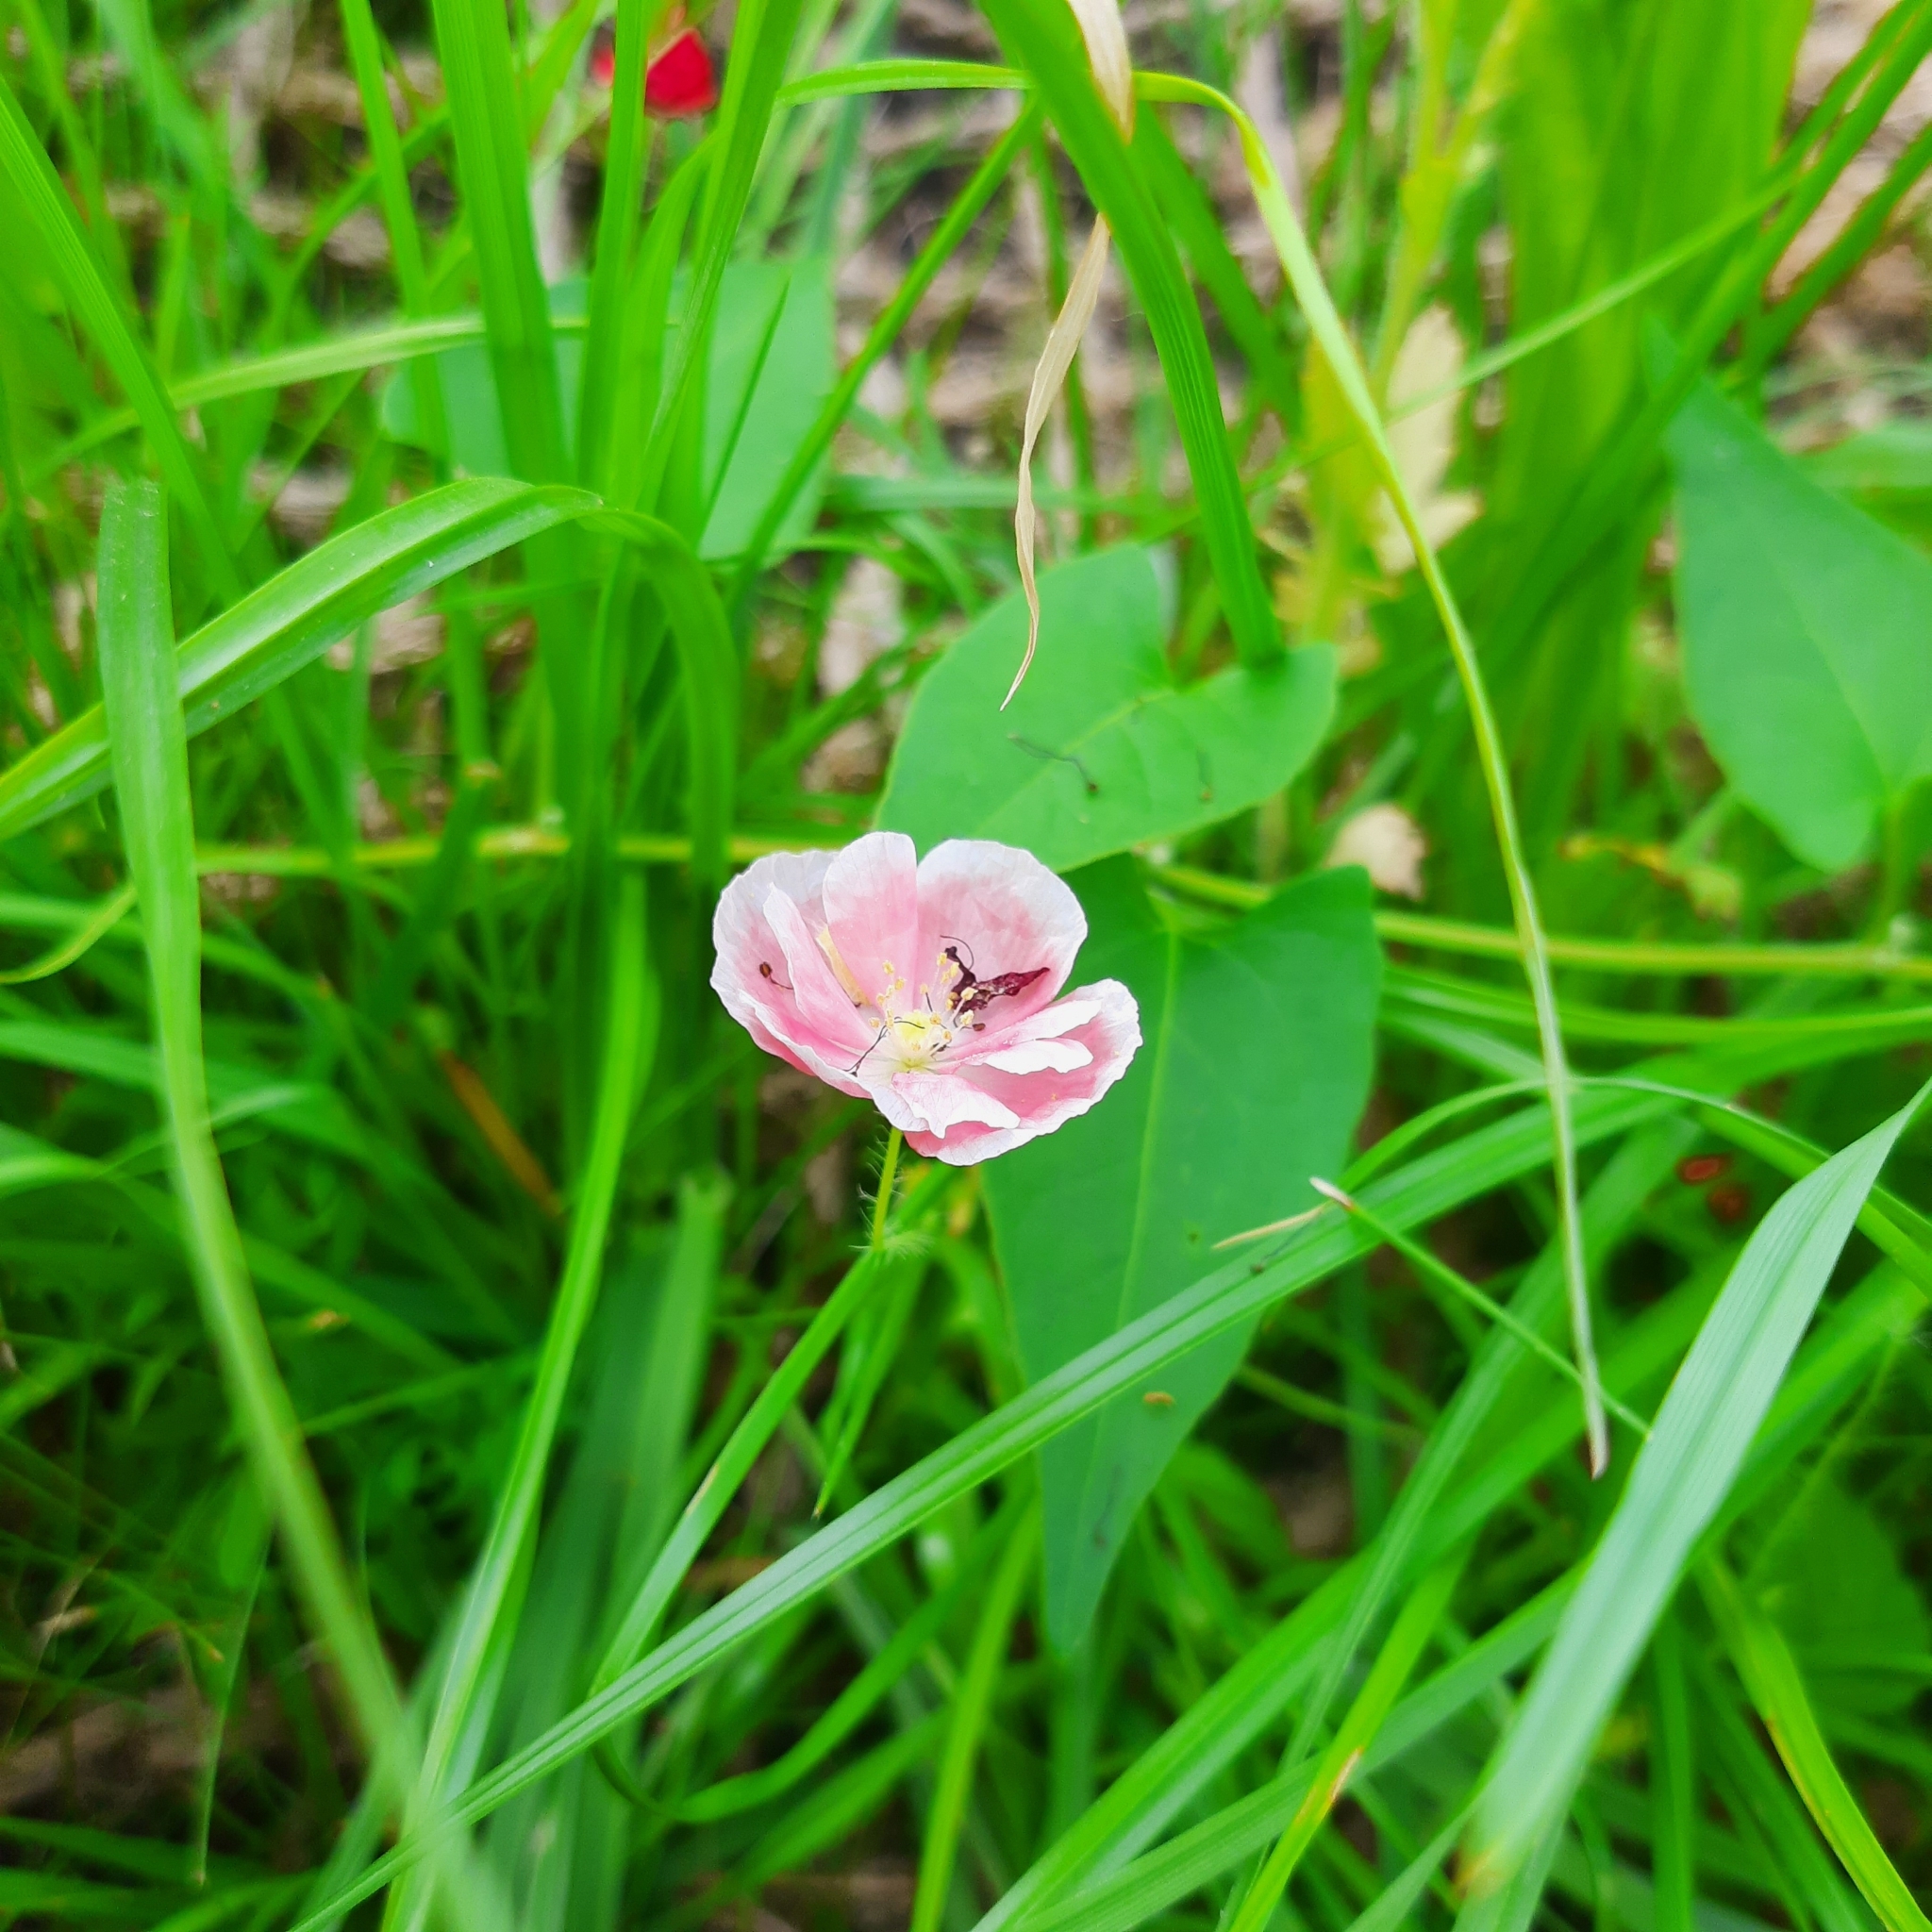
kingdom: Plantae
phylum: Tracheophyta
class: Magnoliopsida
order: Ranunculales
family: Papaveraceae
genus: Papaver
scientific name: Papaver
